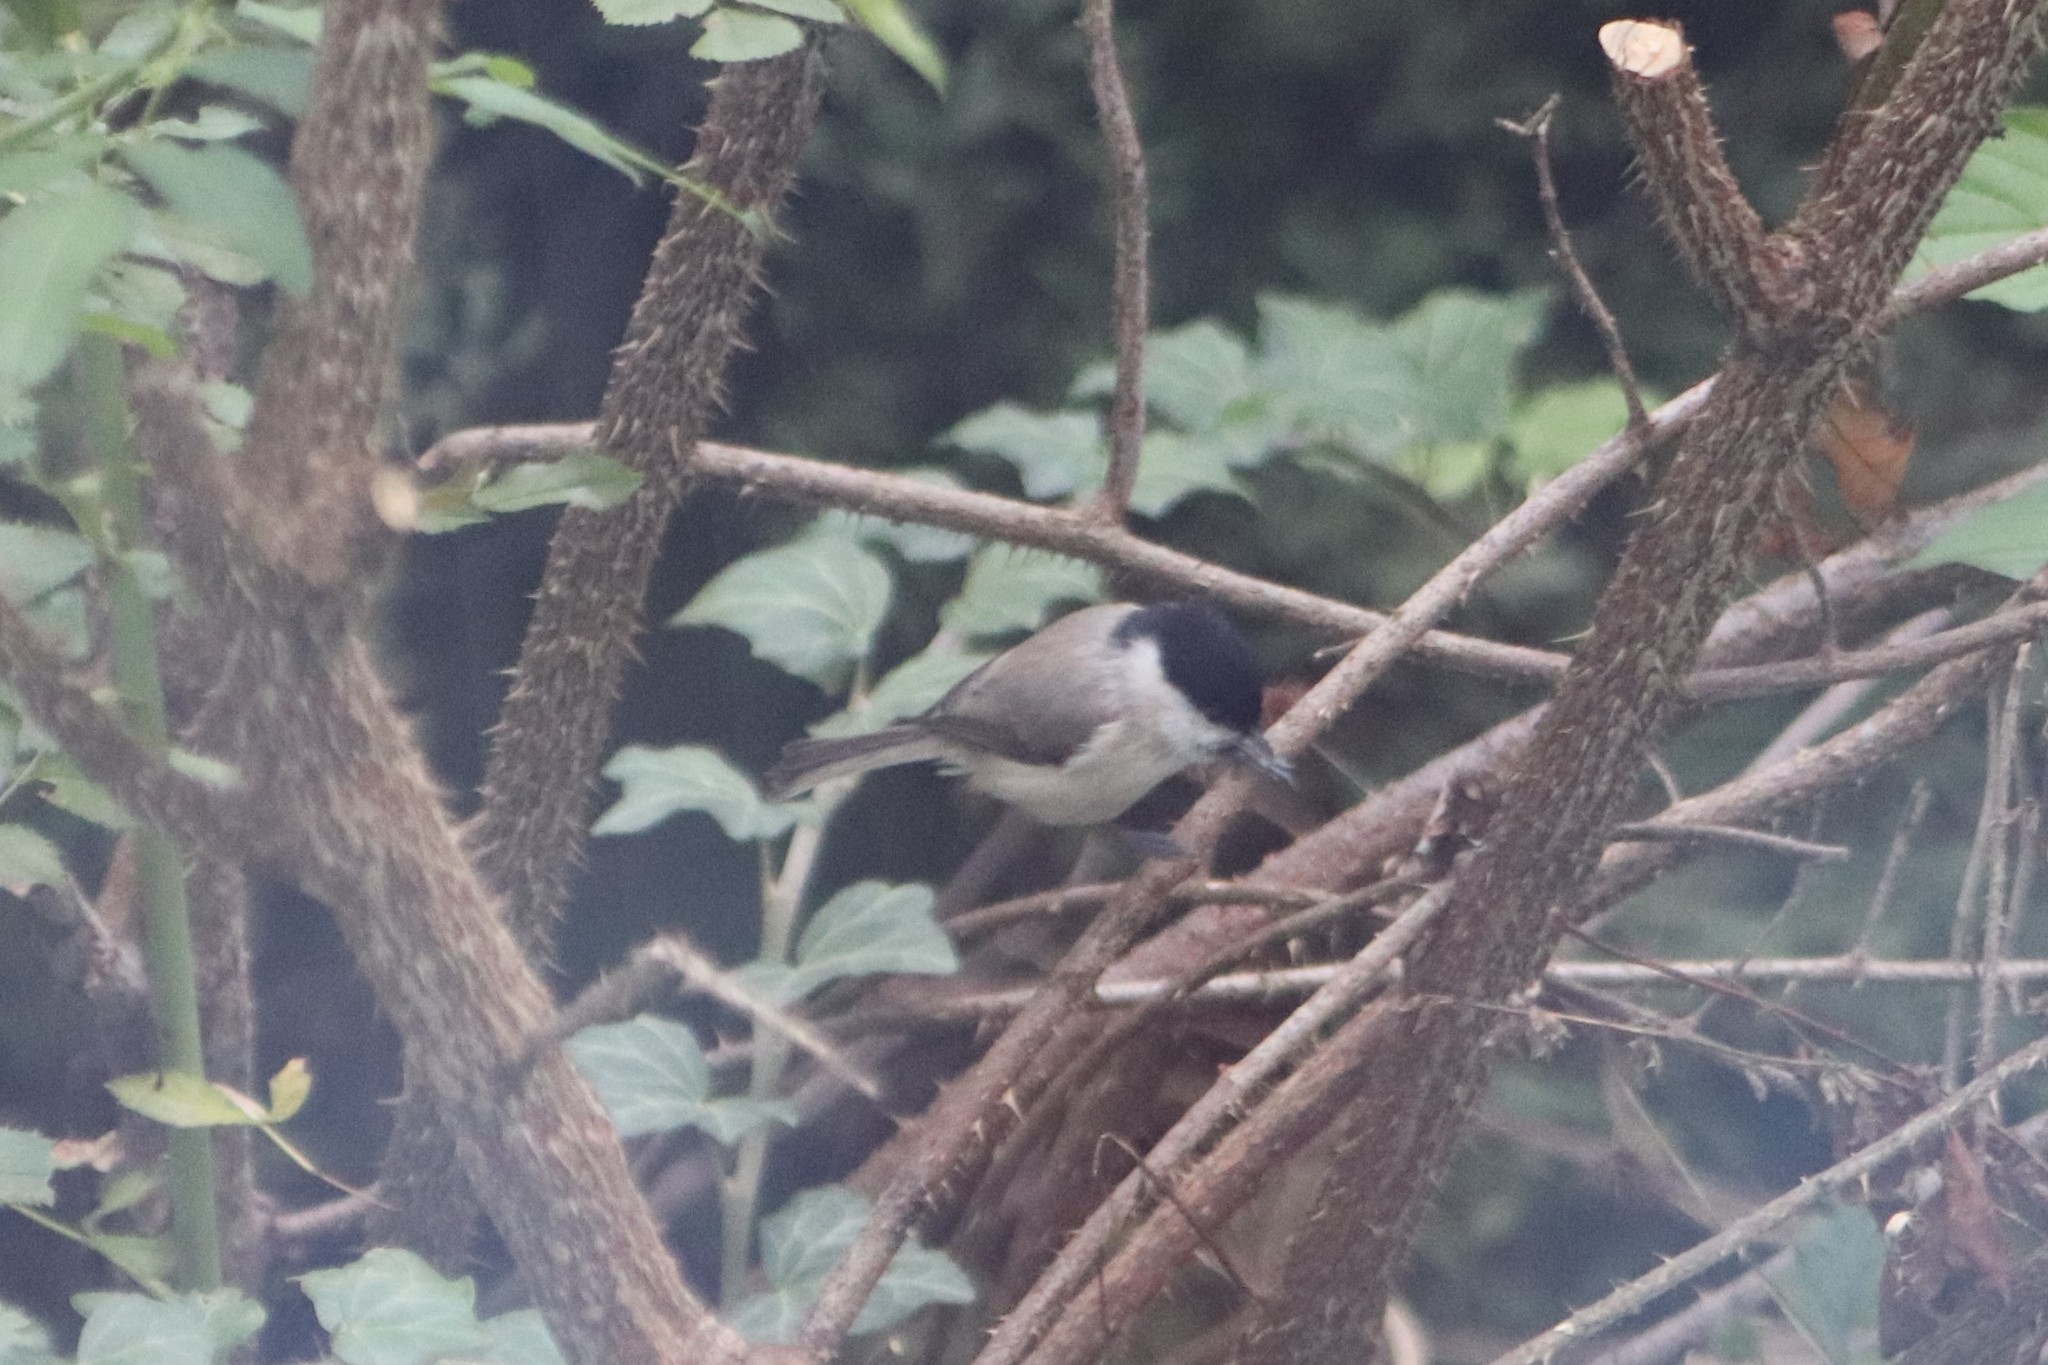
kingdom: Animalia
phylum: Chordata
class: Aves
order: Passeriformes
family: Paridae
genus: Poecile
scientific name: Poecile palustris
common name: Marsh tit
